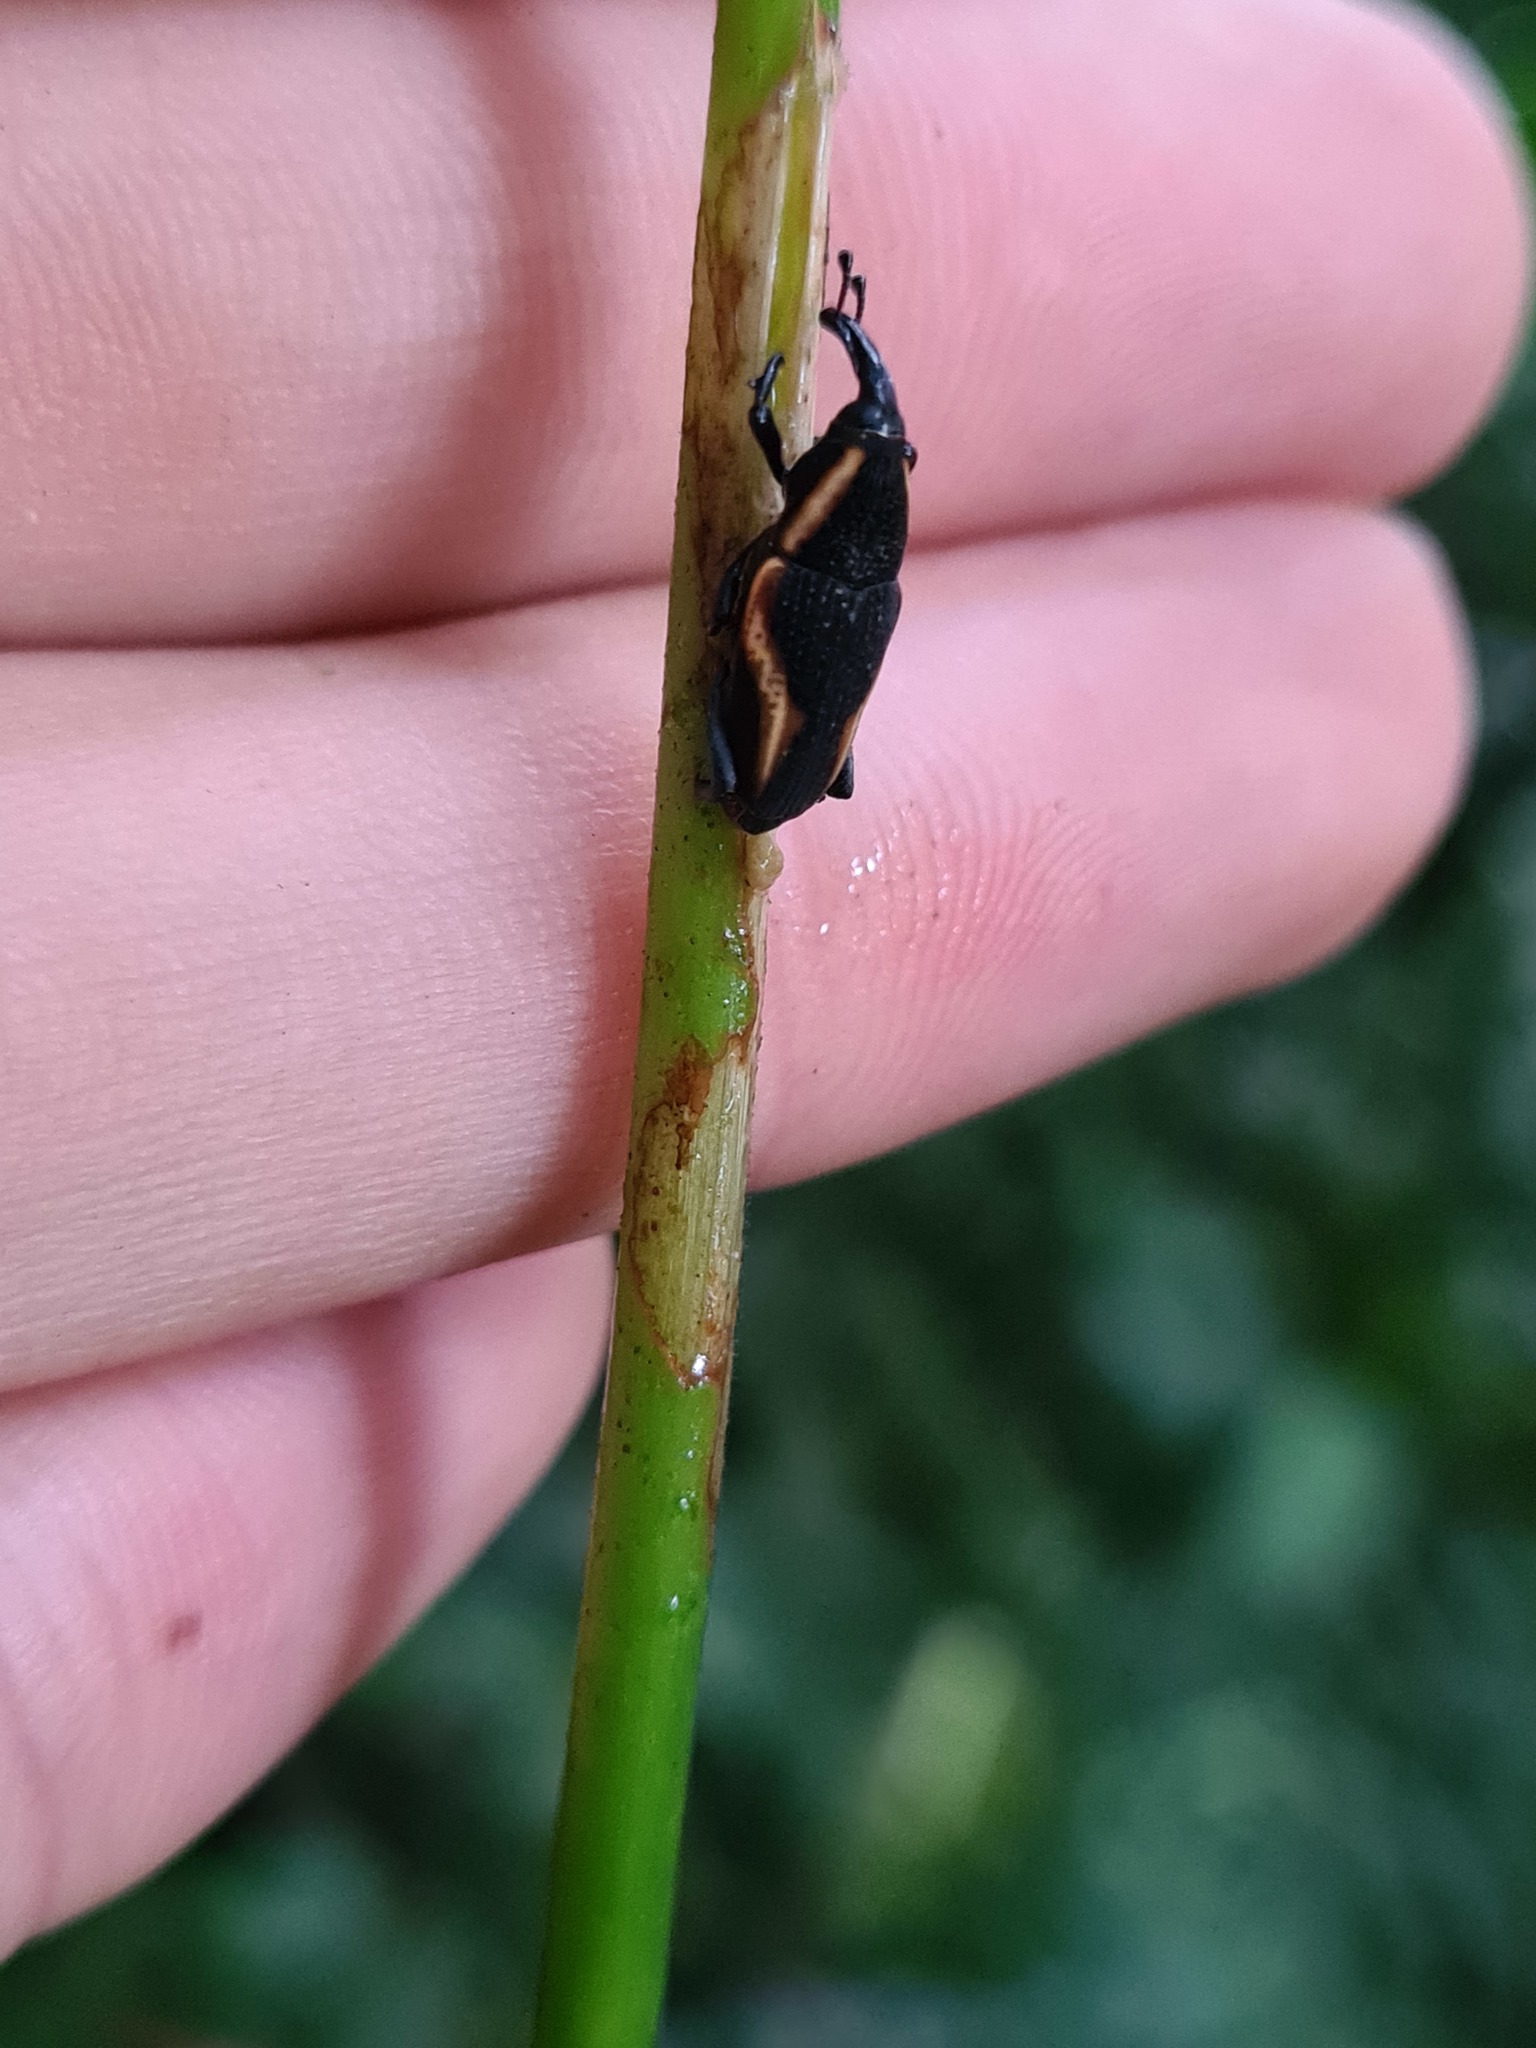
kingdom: Animalia
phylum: Arthropoda
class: Insecta
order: Coleoptera
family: Dryophthoridae
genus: Cactophagus
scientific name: Cactophagus
